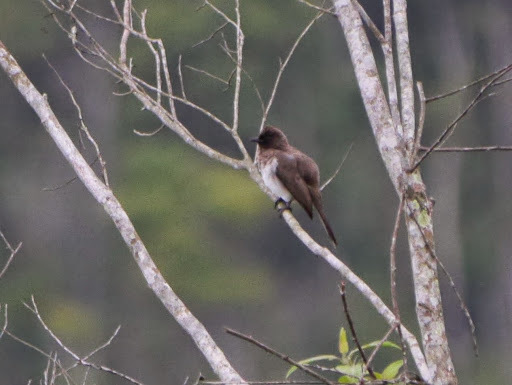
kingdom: Animalia
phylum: Chordata
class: Aves
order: Passeriformes
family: Pycnonotidae
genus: Pycnonotus
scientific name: Pycnonotus barbatus
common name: Common bulbul
